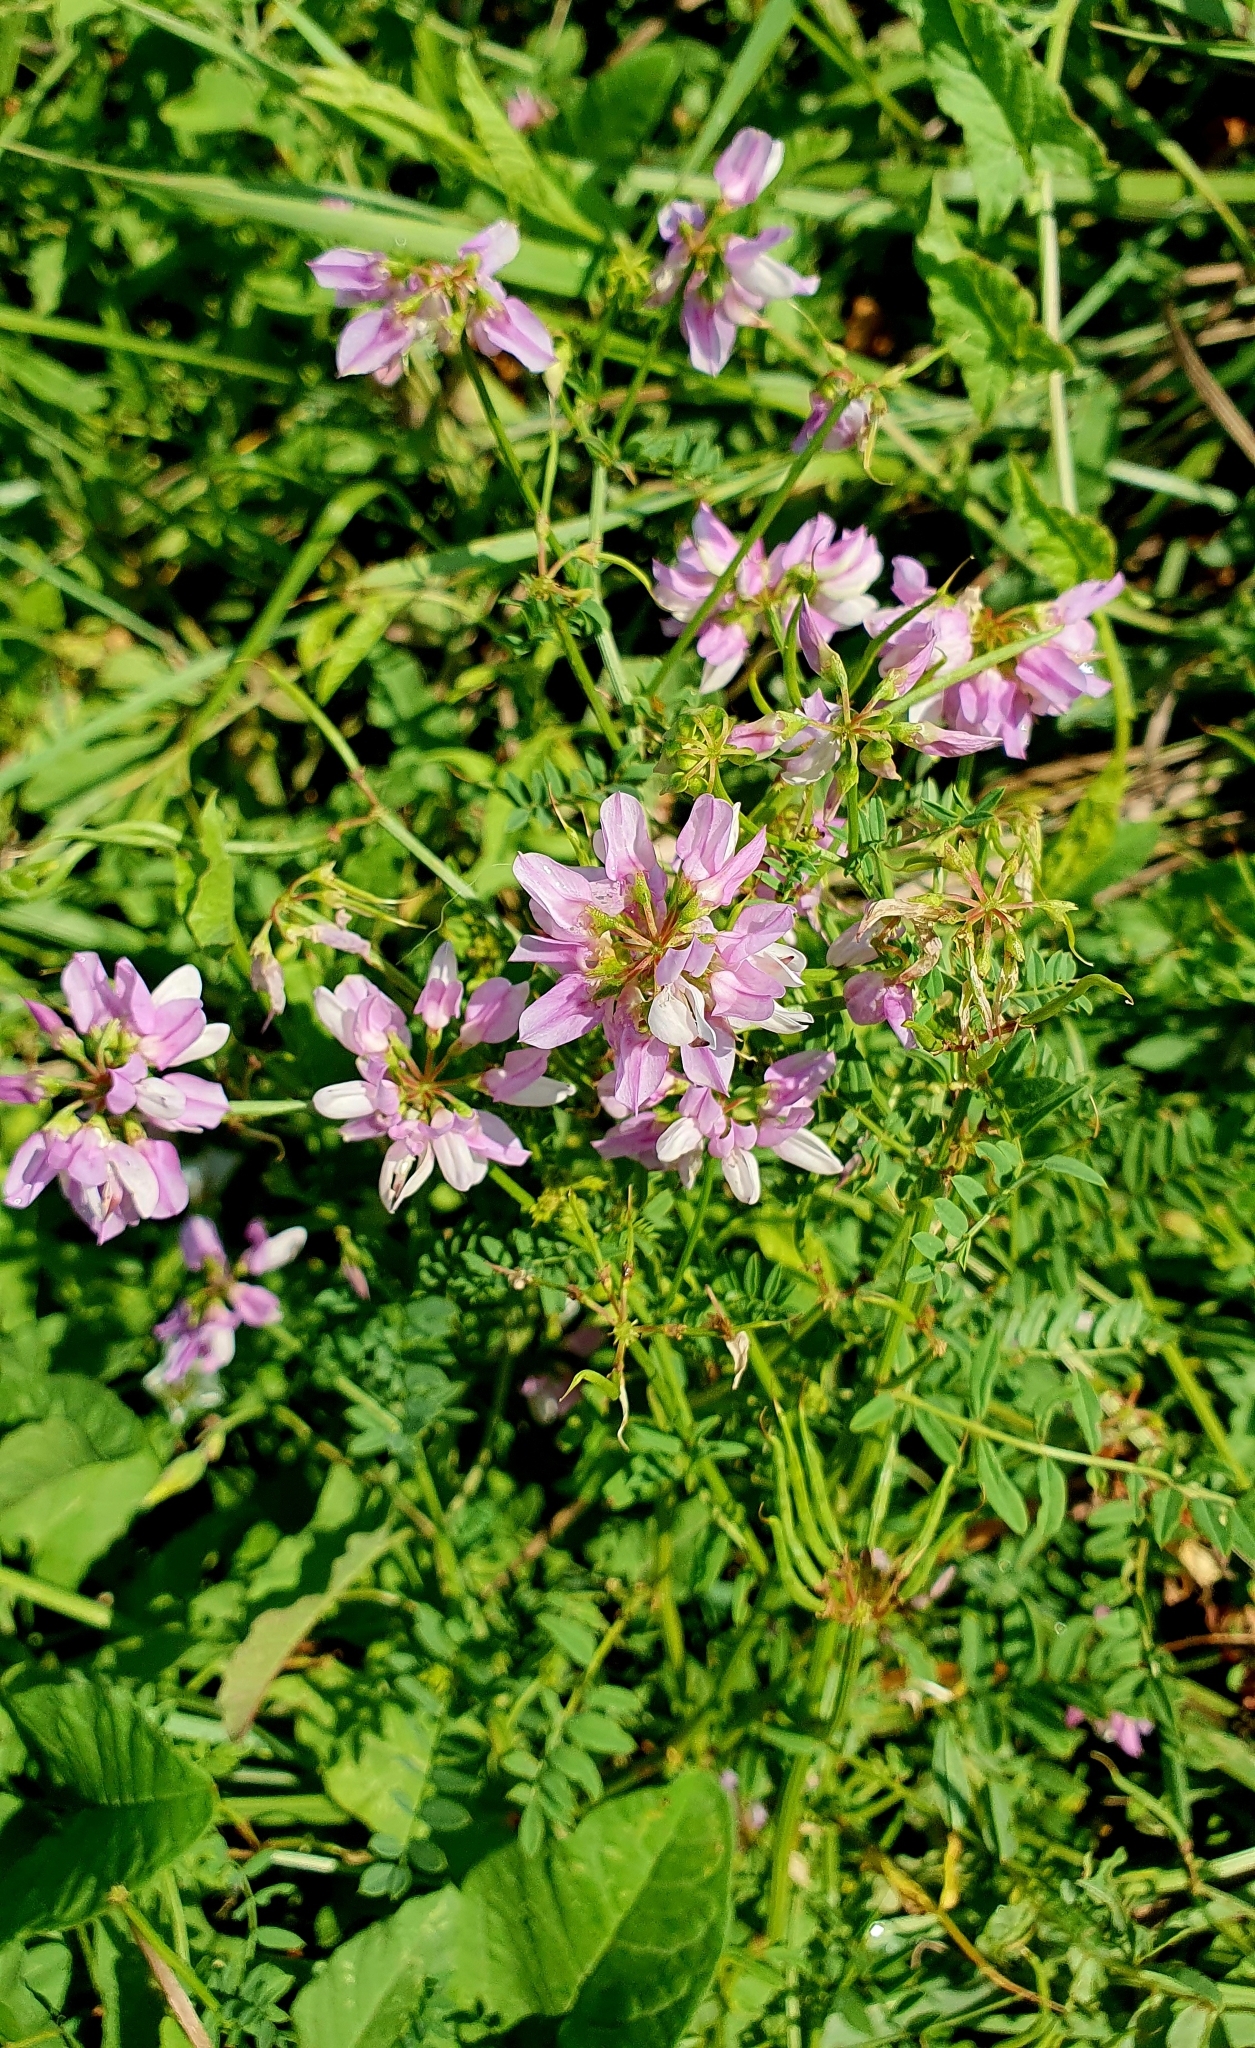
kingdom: Plantae
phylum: Tracheophyta
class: Magnoliopsida
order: Fabales
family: Fabaceae
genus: Coronilla
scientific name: Coronilla varia
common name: Crownvetch
